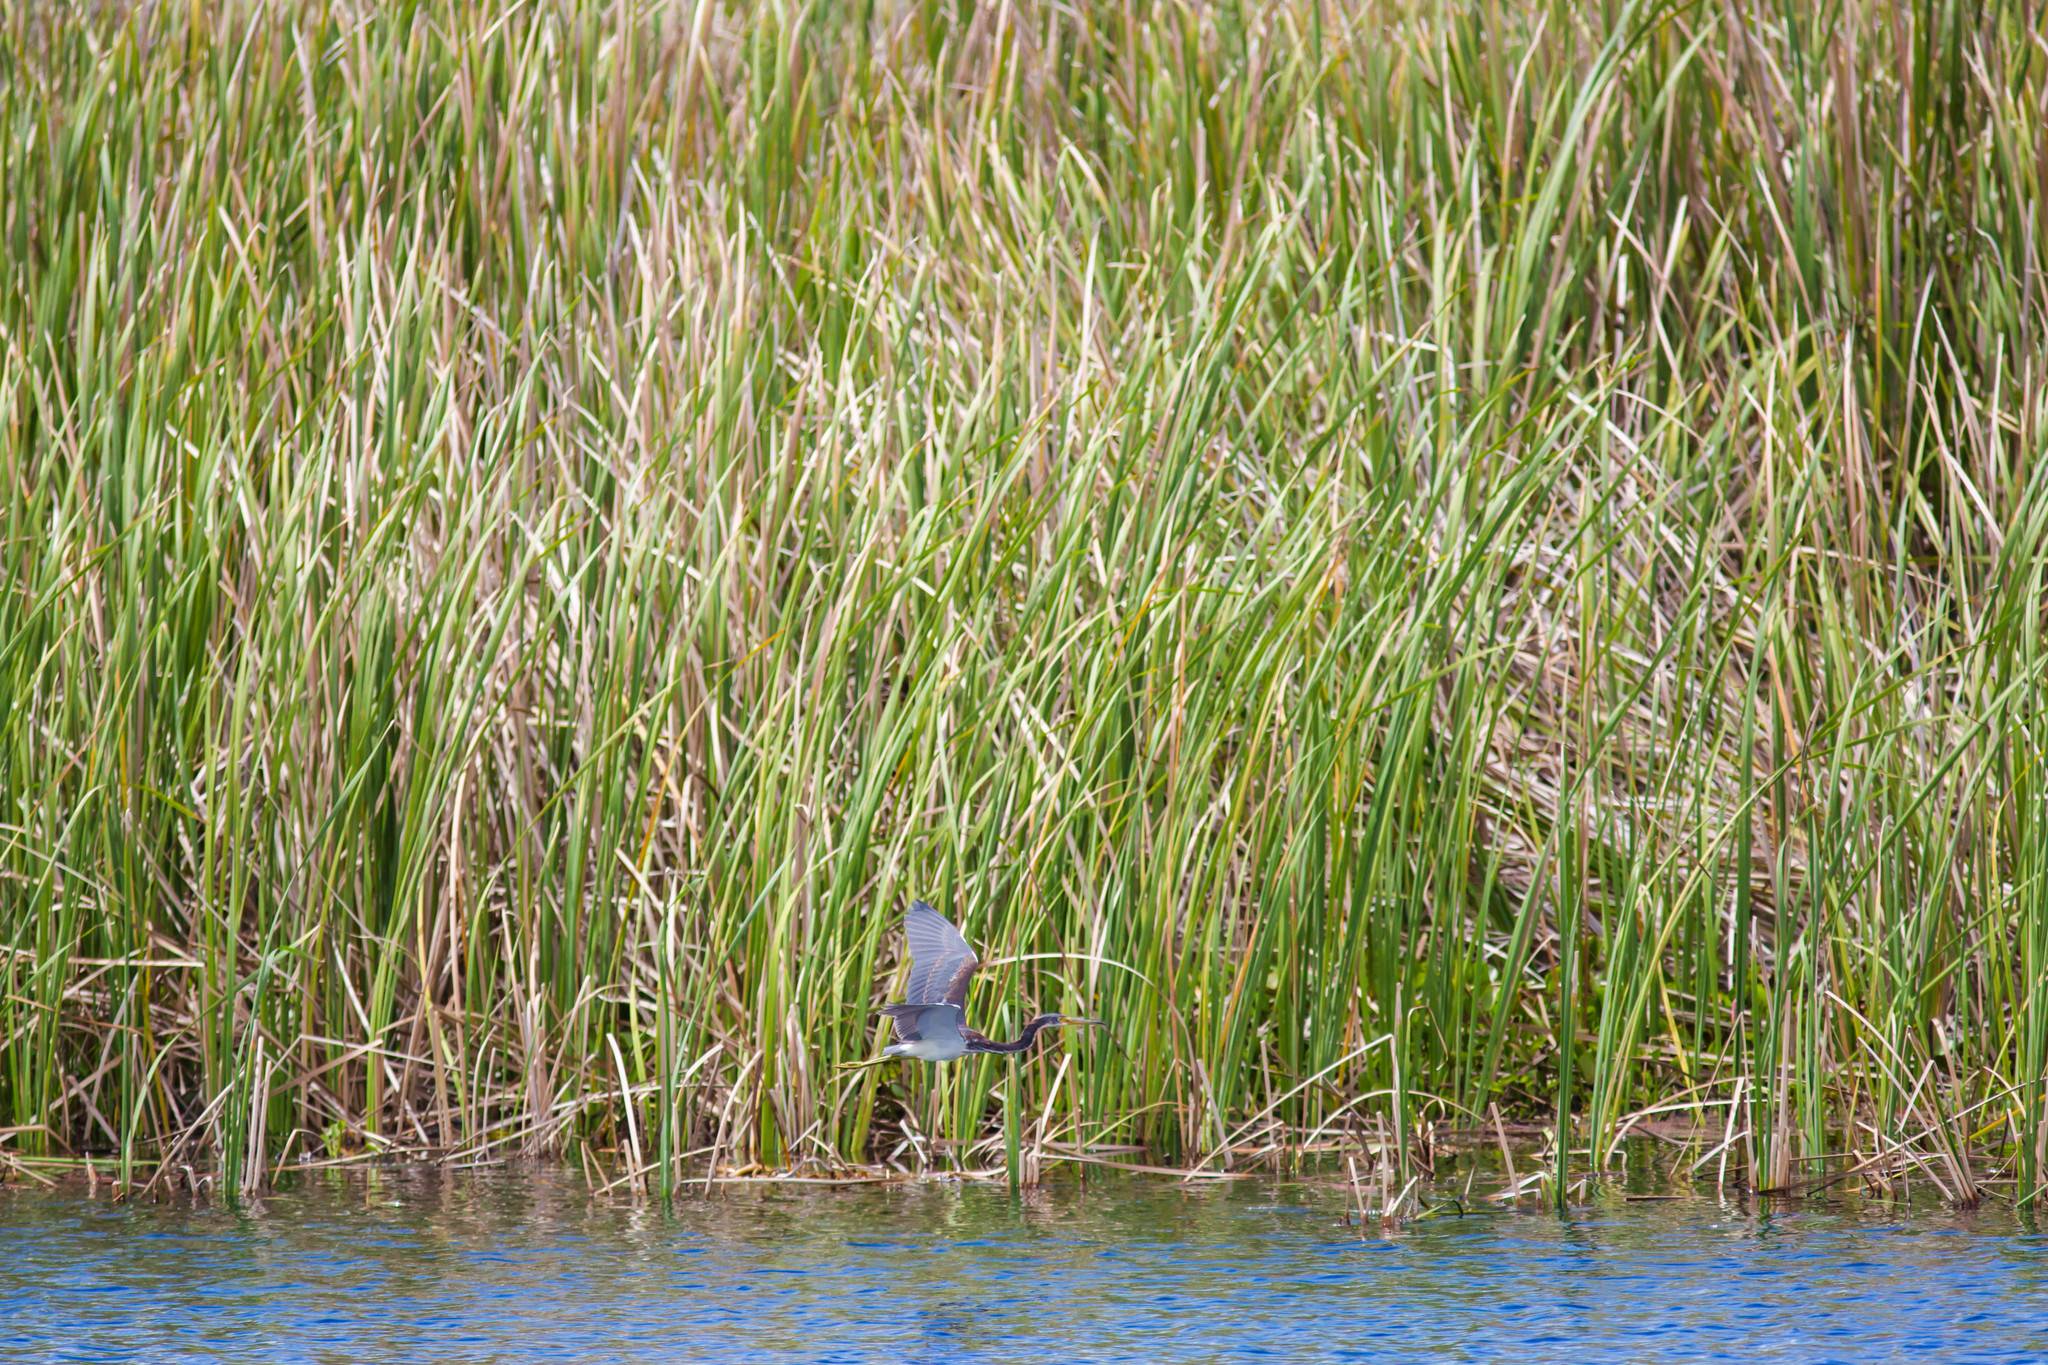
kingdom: Animalia
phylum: Chordata
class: Aves
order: Pelecaniformes
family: Ardeidae
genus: Egretta
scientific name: Egretta tricolor
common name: Tricolored heron
